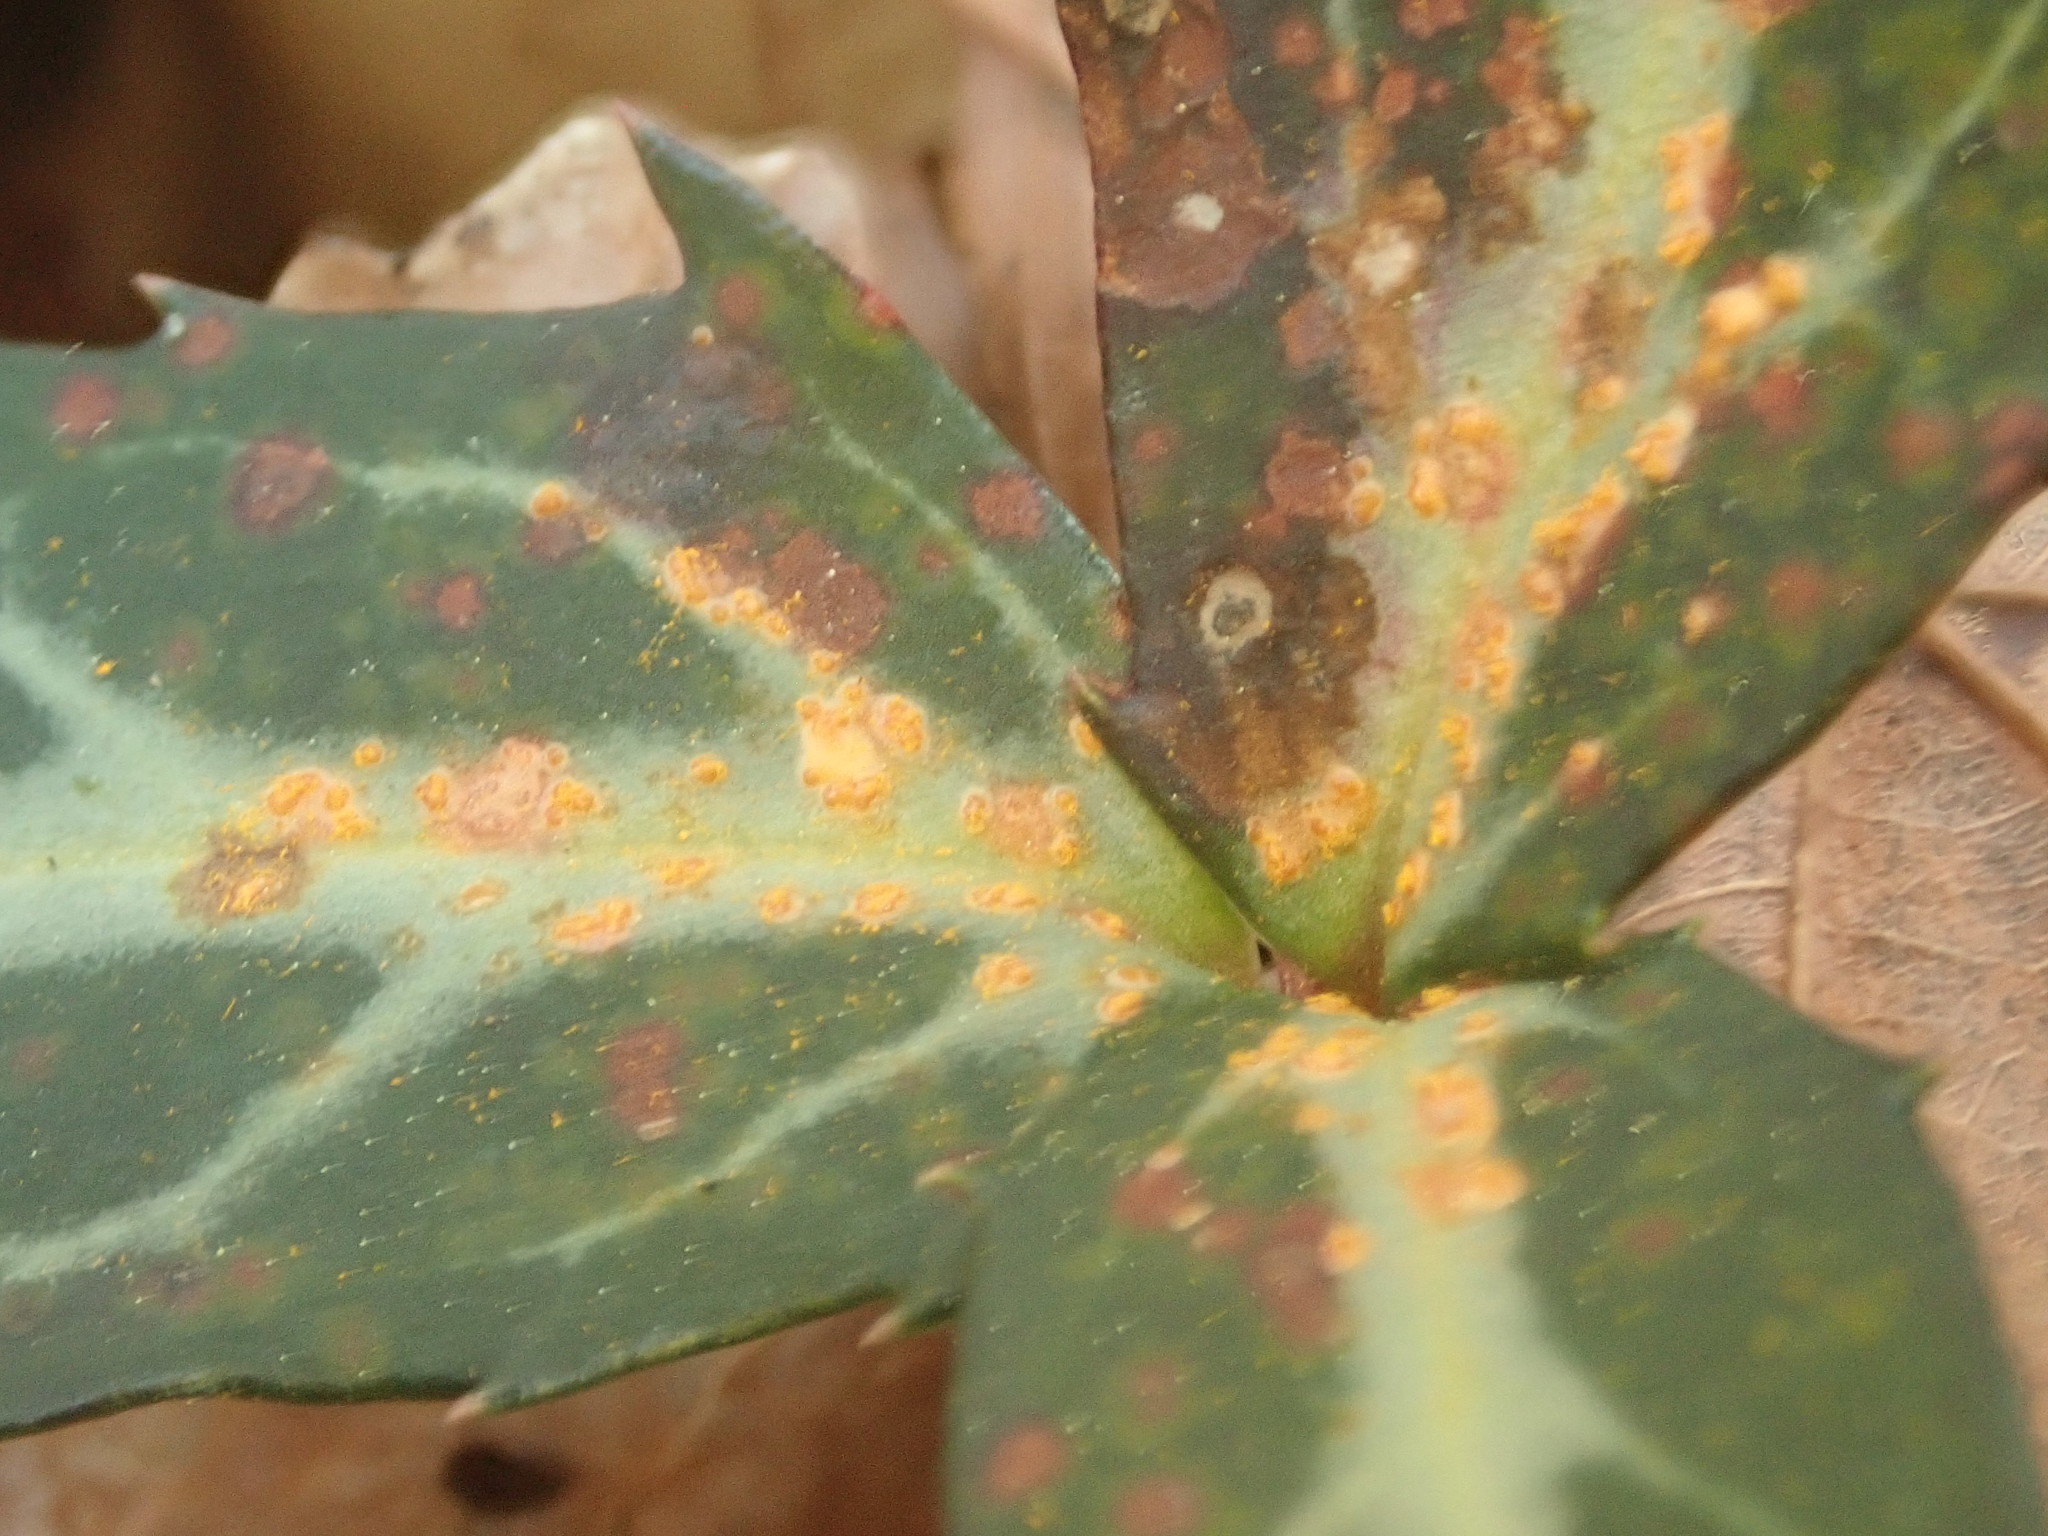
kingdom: Fungi
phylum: Basidiomycota
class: Pucciniomycetes
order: Pucciniales
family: Pucciniastraceae
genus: Pucciniastrum
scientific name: Pucciniastrum pyrolae
